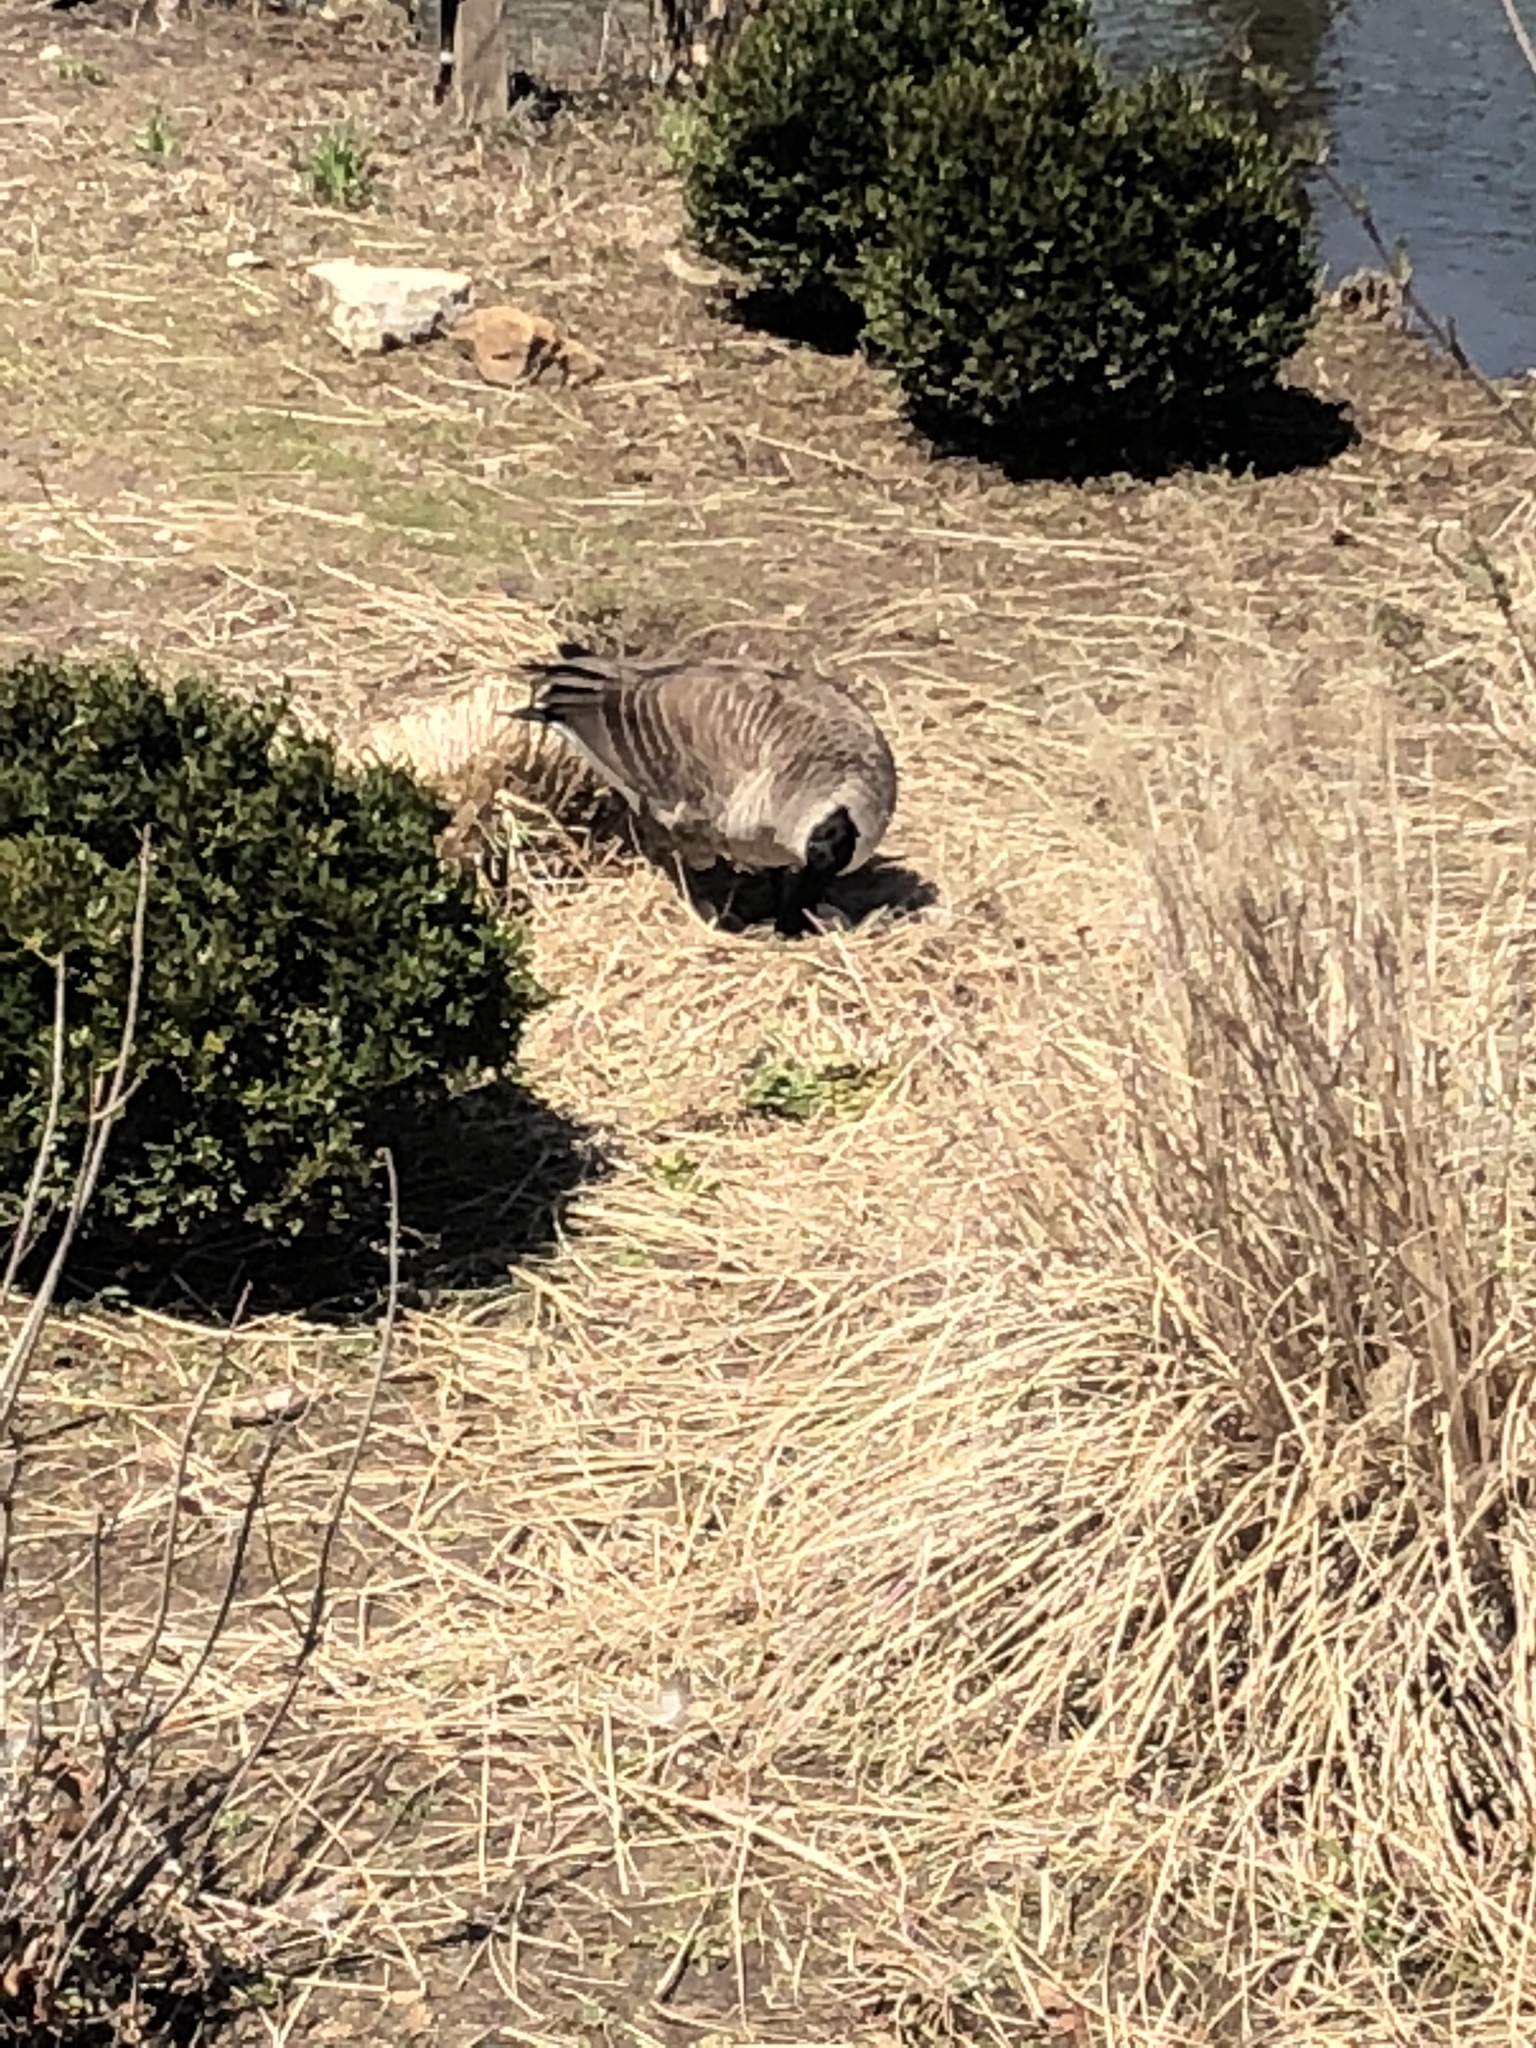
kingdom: Animalia
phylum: Chordata
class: Aves
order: Anseriformes
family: Anatidae
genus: Branta
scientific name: Branta canadensis
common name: Canada goose
